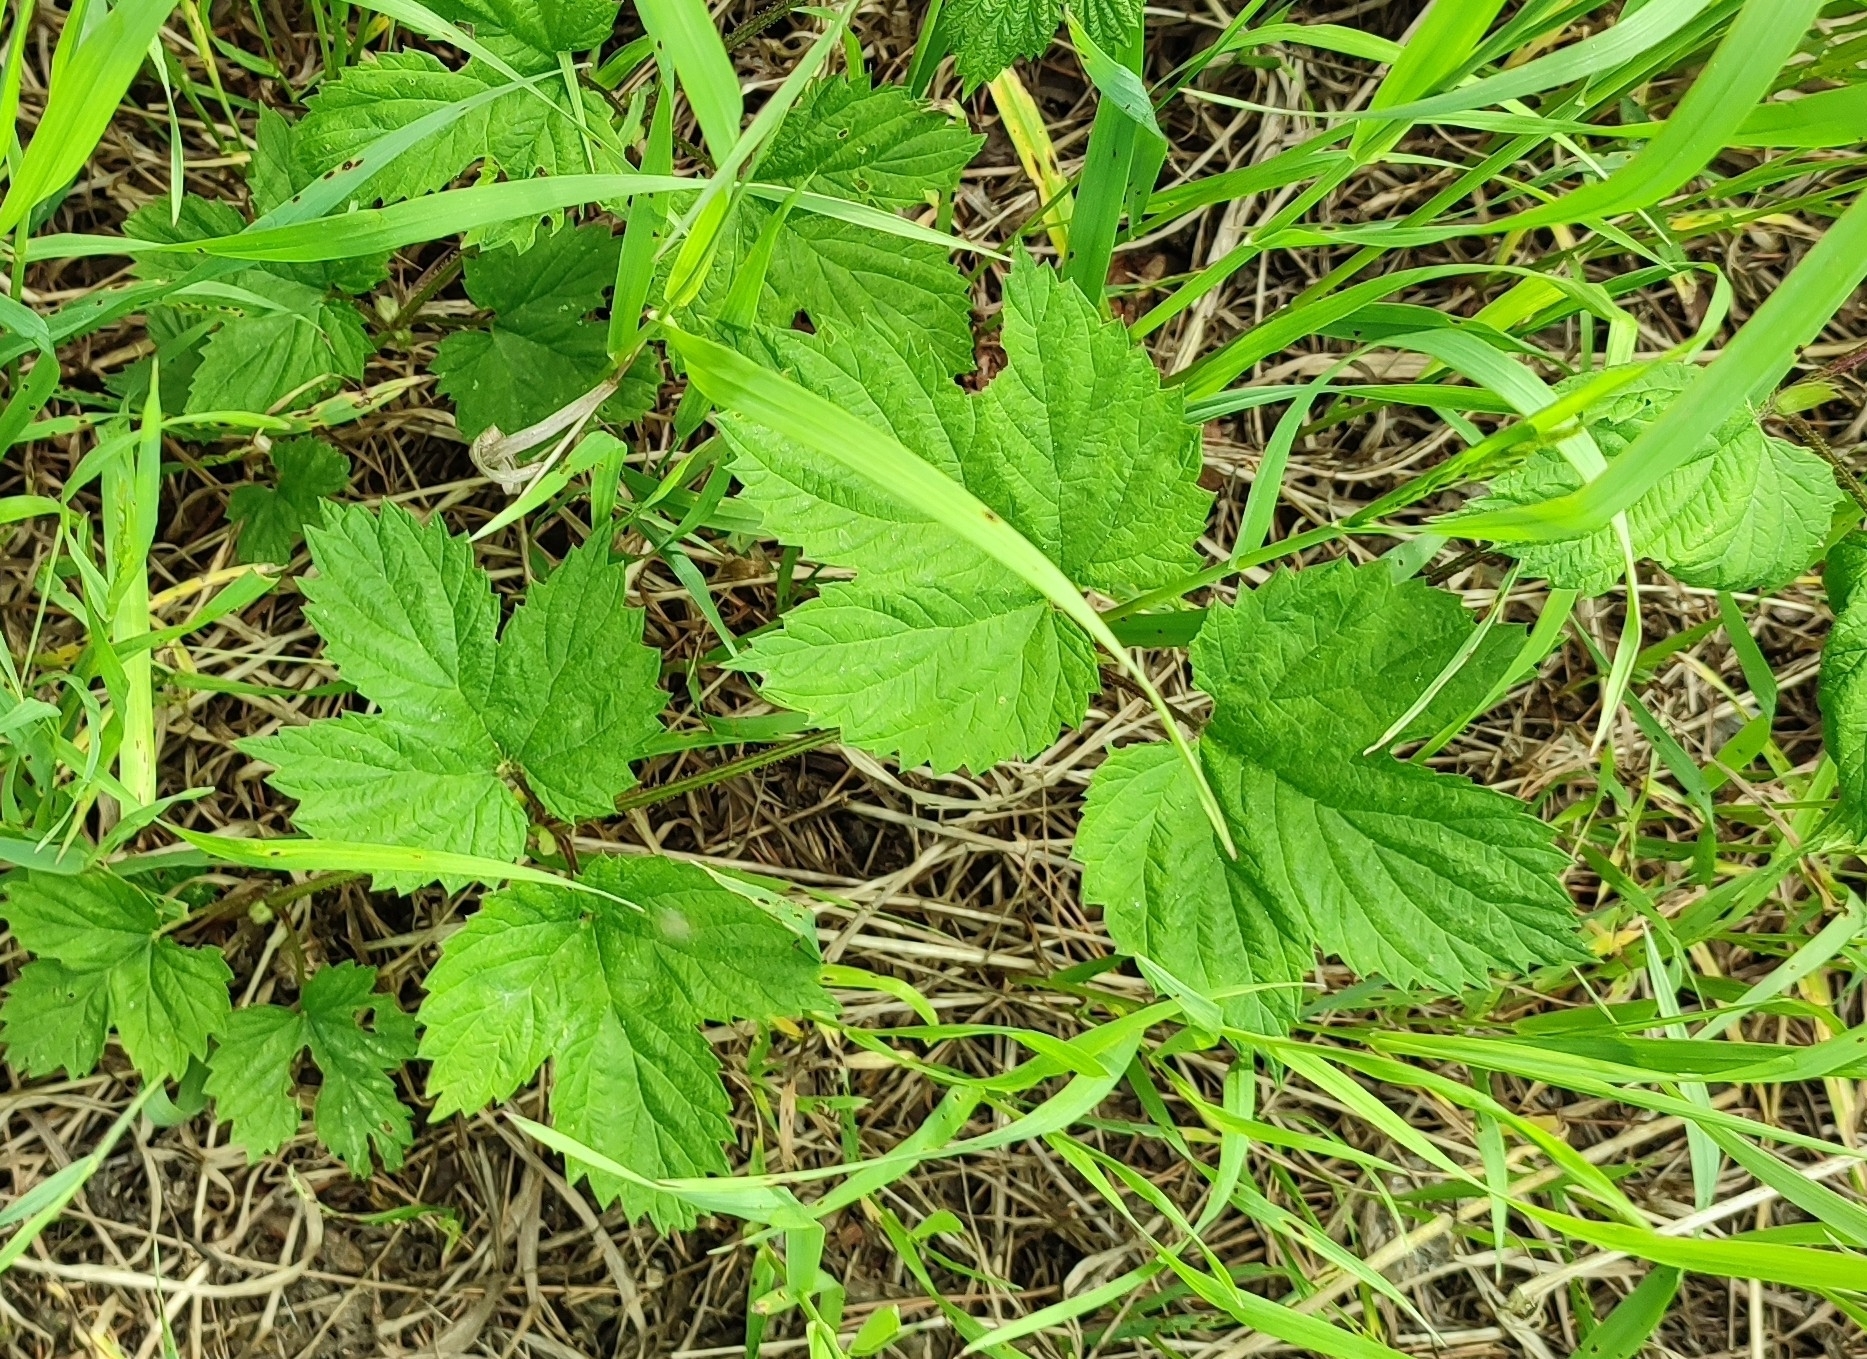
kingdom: Plantae
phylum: Tracheophyta
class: Magnoliopsida
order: Rosales
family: Cannabaceae
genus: Humulus
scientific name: Humulus lupulus
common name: Hop
